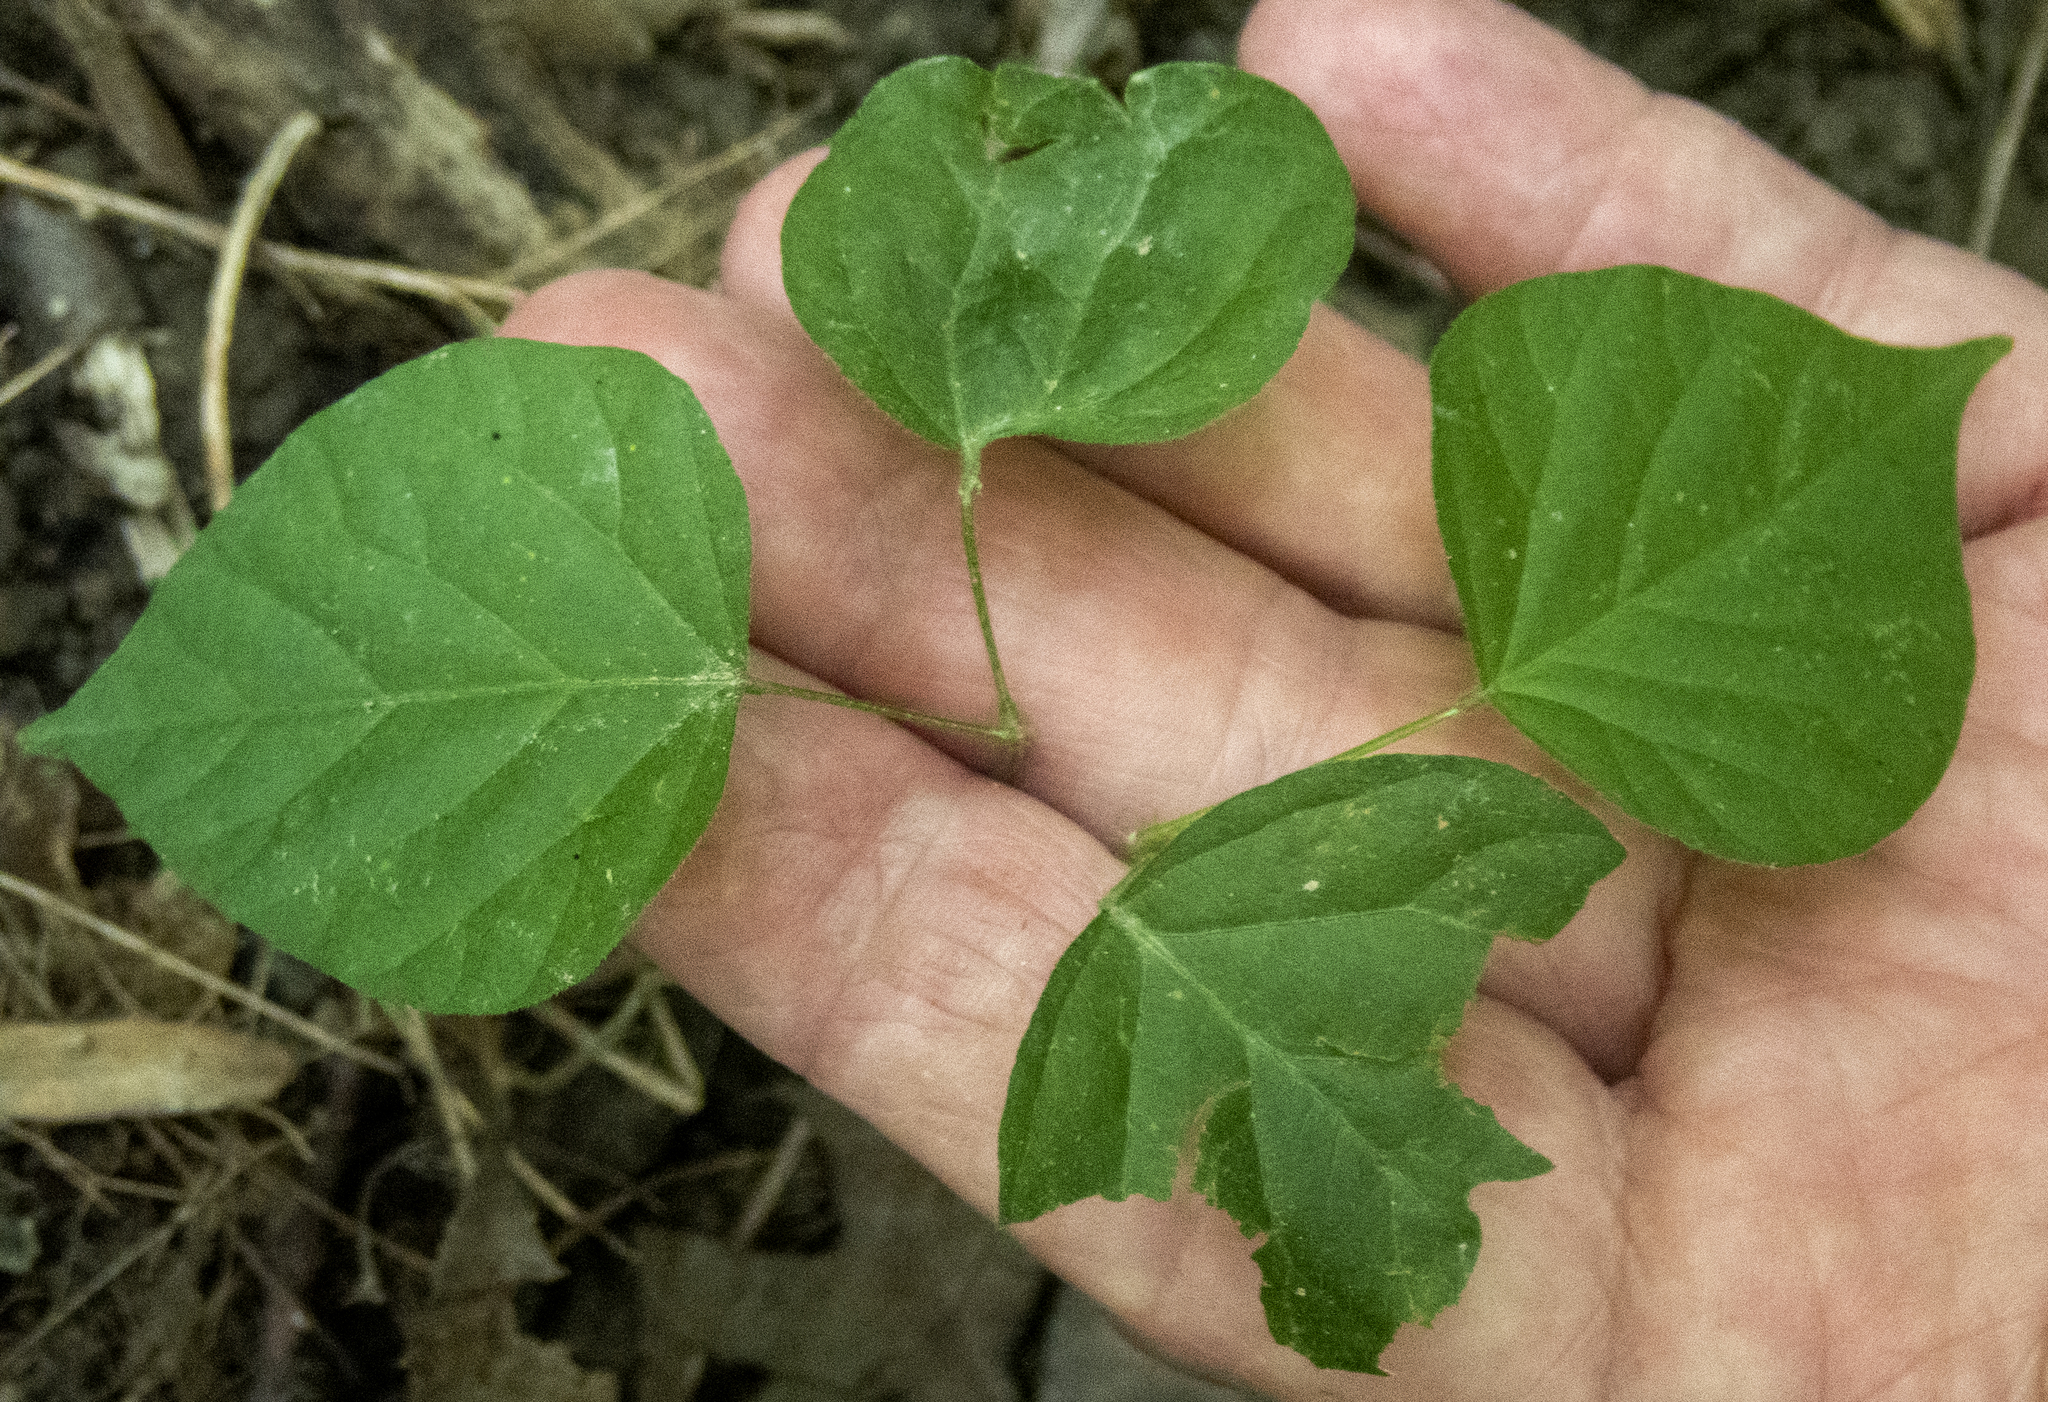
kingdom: Plantae
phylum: Tracheophyta
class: Magnoliopsida
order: Fabales
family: Fabaceae
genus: Hylodesmum
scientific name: Hylodesmum glutinosum
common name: Clustered-leaved tick-trefoil
